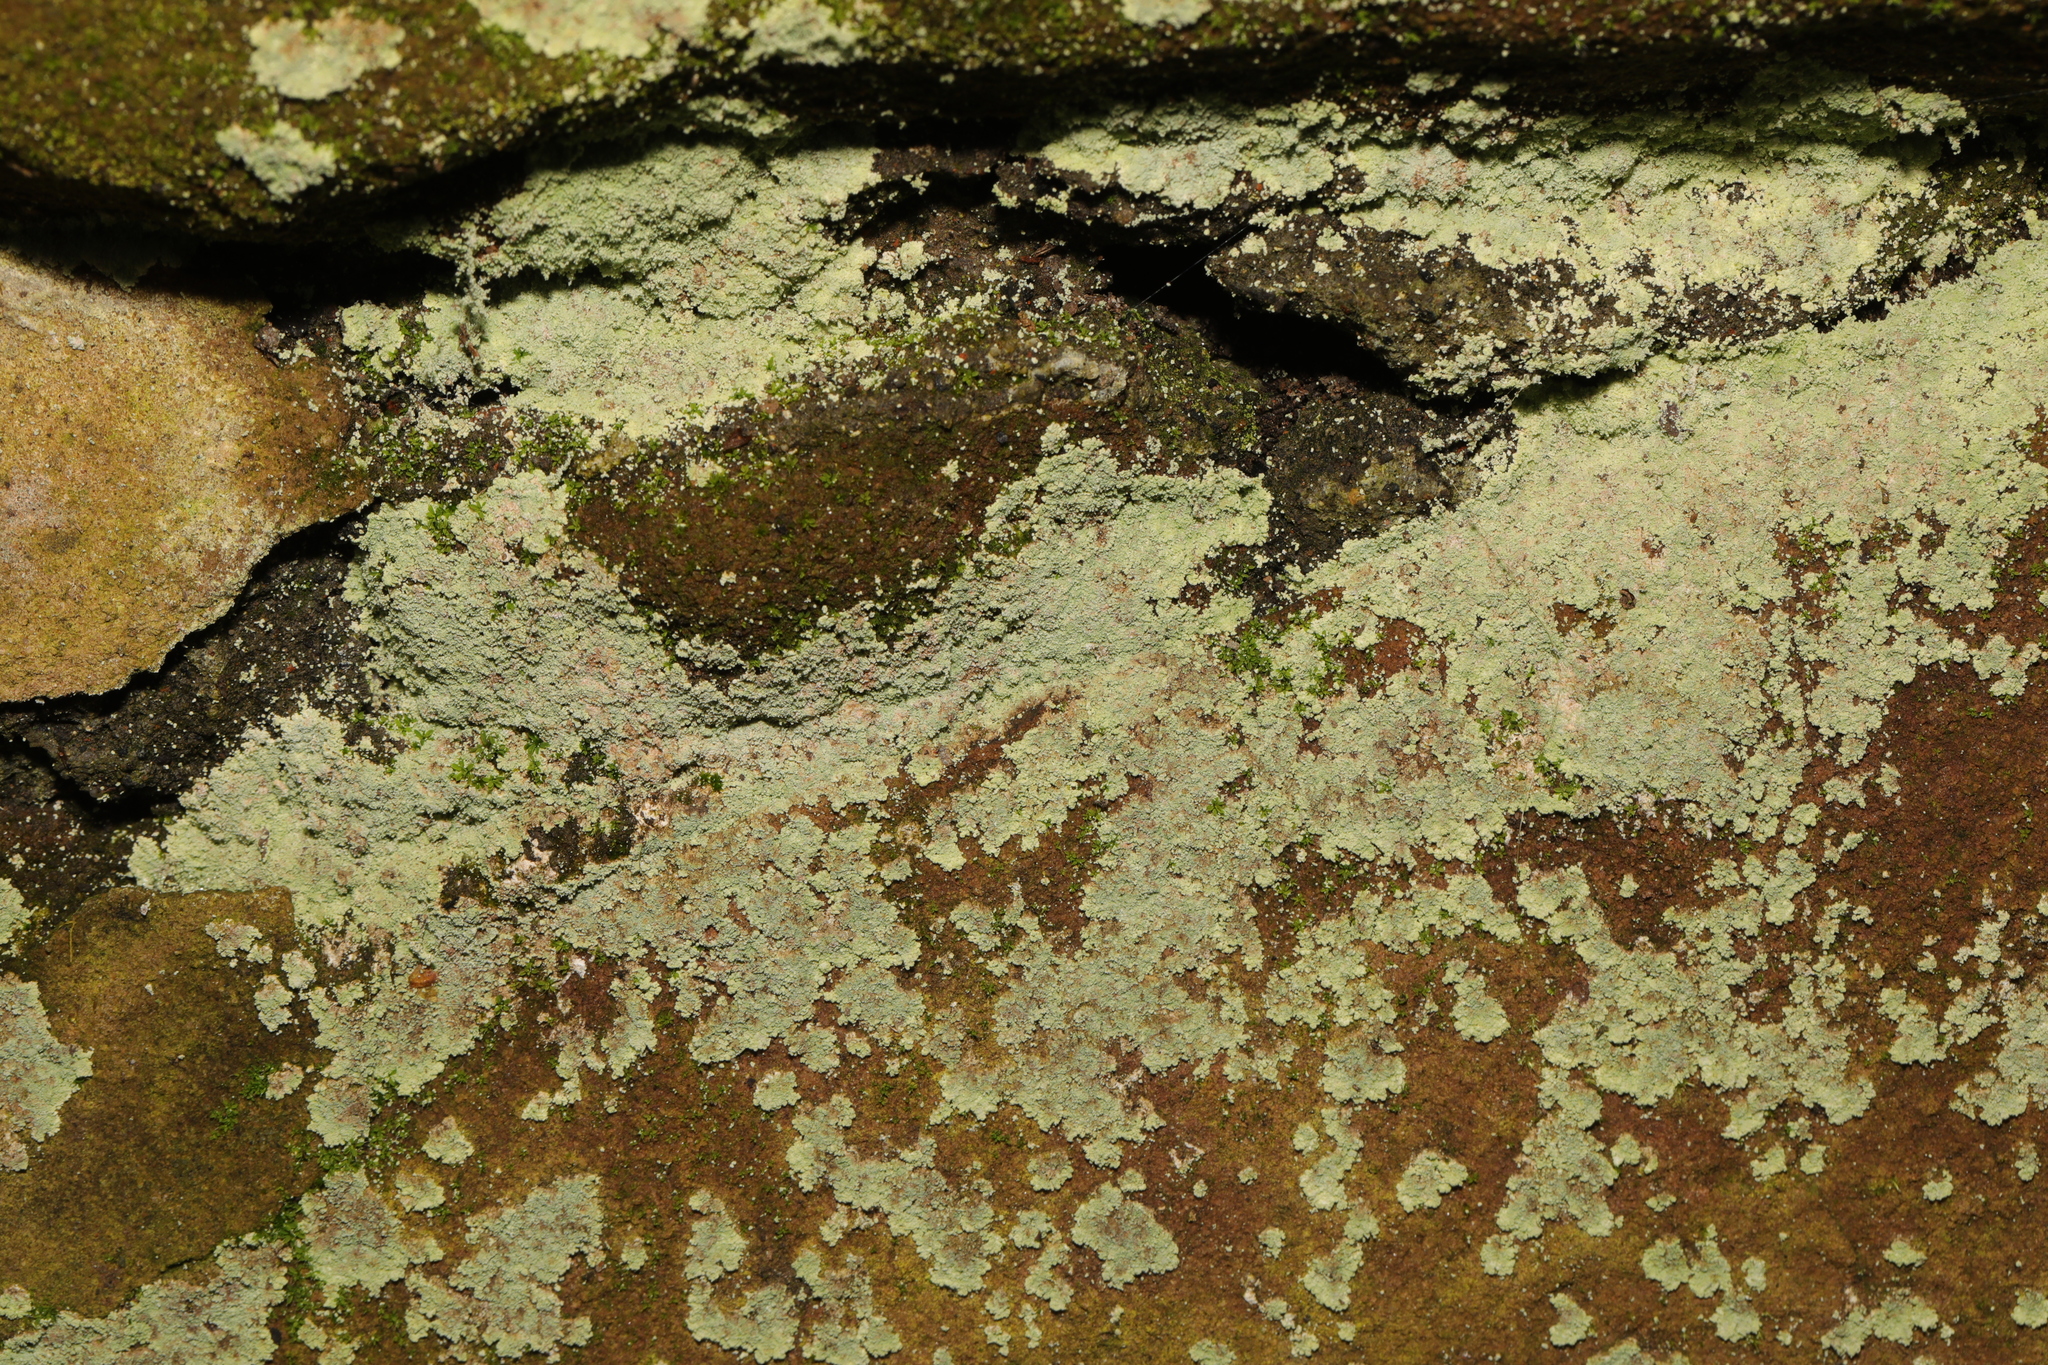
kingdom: Fungi
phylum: Ascomycota
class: Lecanoromycetes
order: Lecanorales
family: Stereocaulaceae
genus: Lepraria
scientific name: Lepraria membranacea
